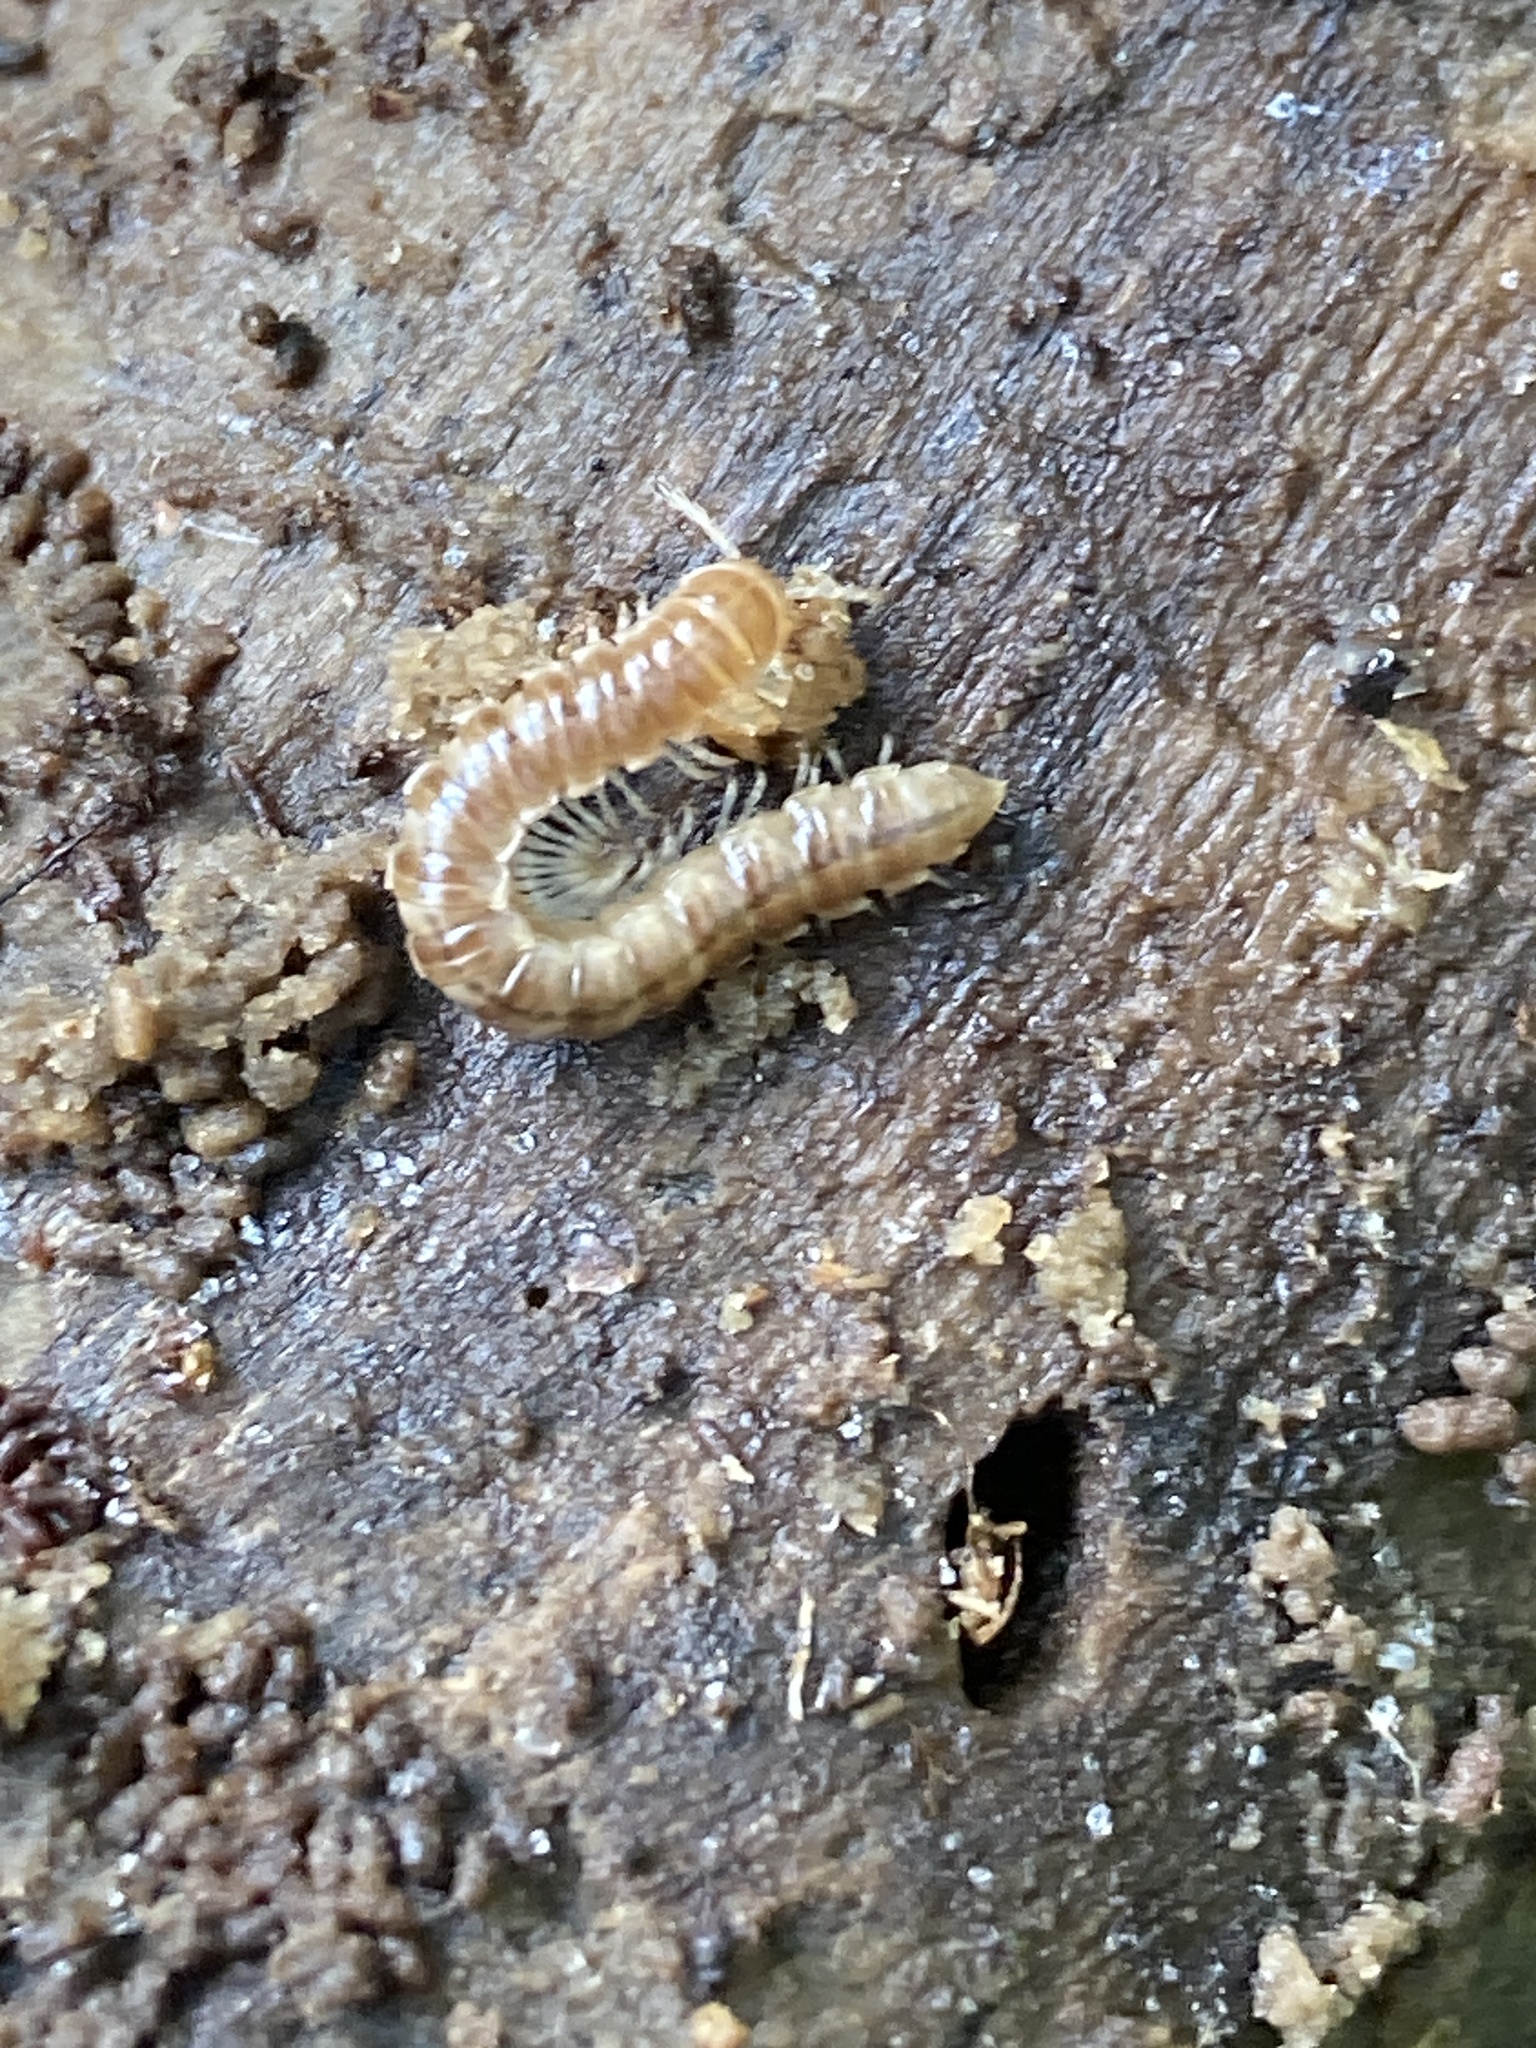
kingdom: Animalia
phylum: Arthropoda
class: Diplopoda
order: Polydesmida
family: Paradoxosomatidae
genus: Oxidus
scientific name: Oxidus gracilis
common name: Greenhouse millipede
